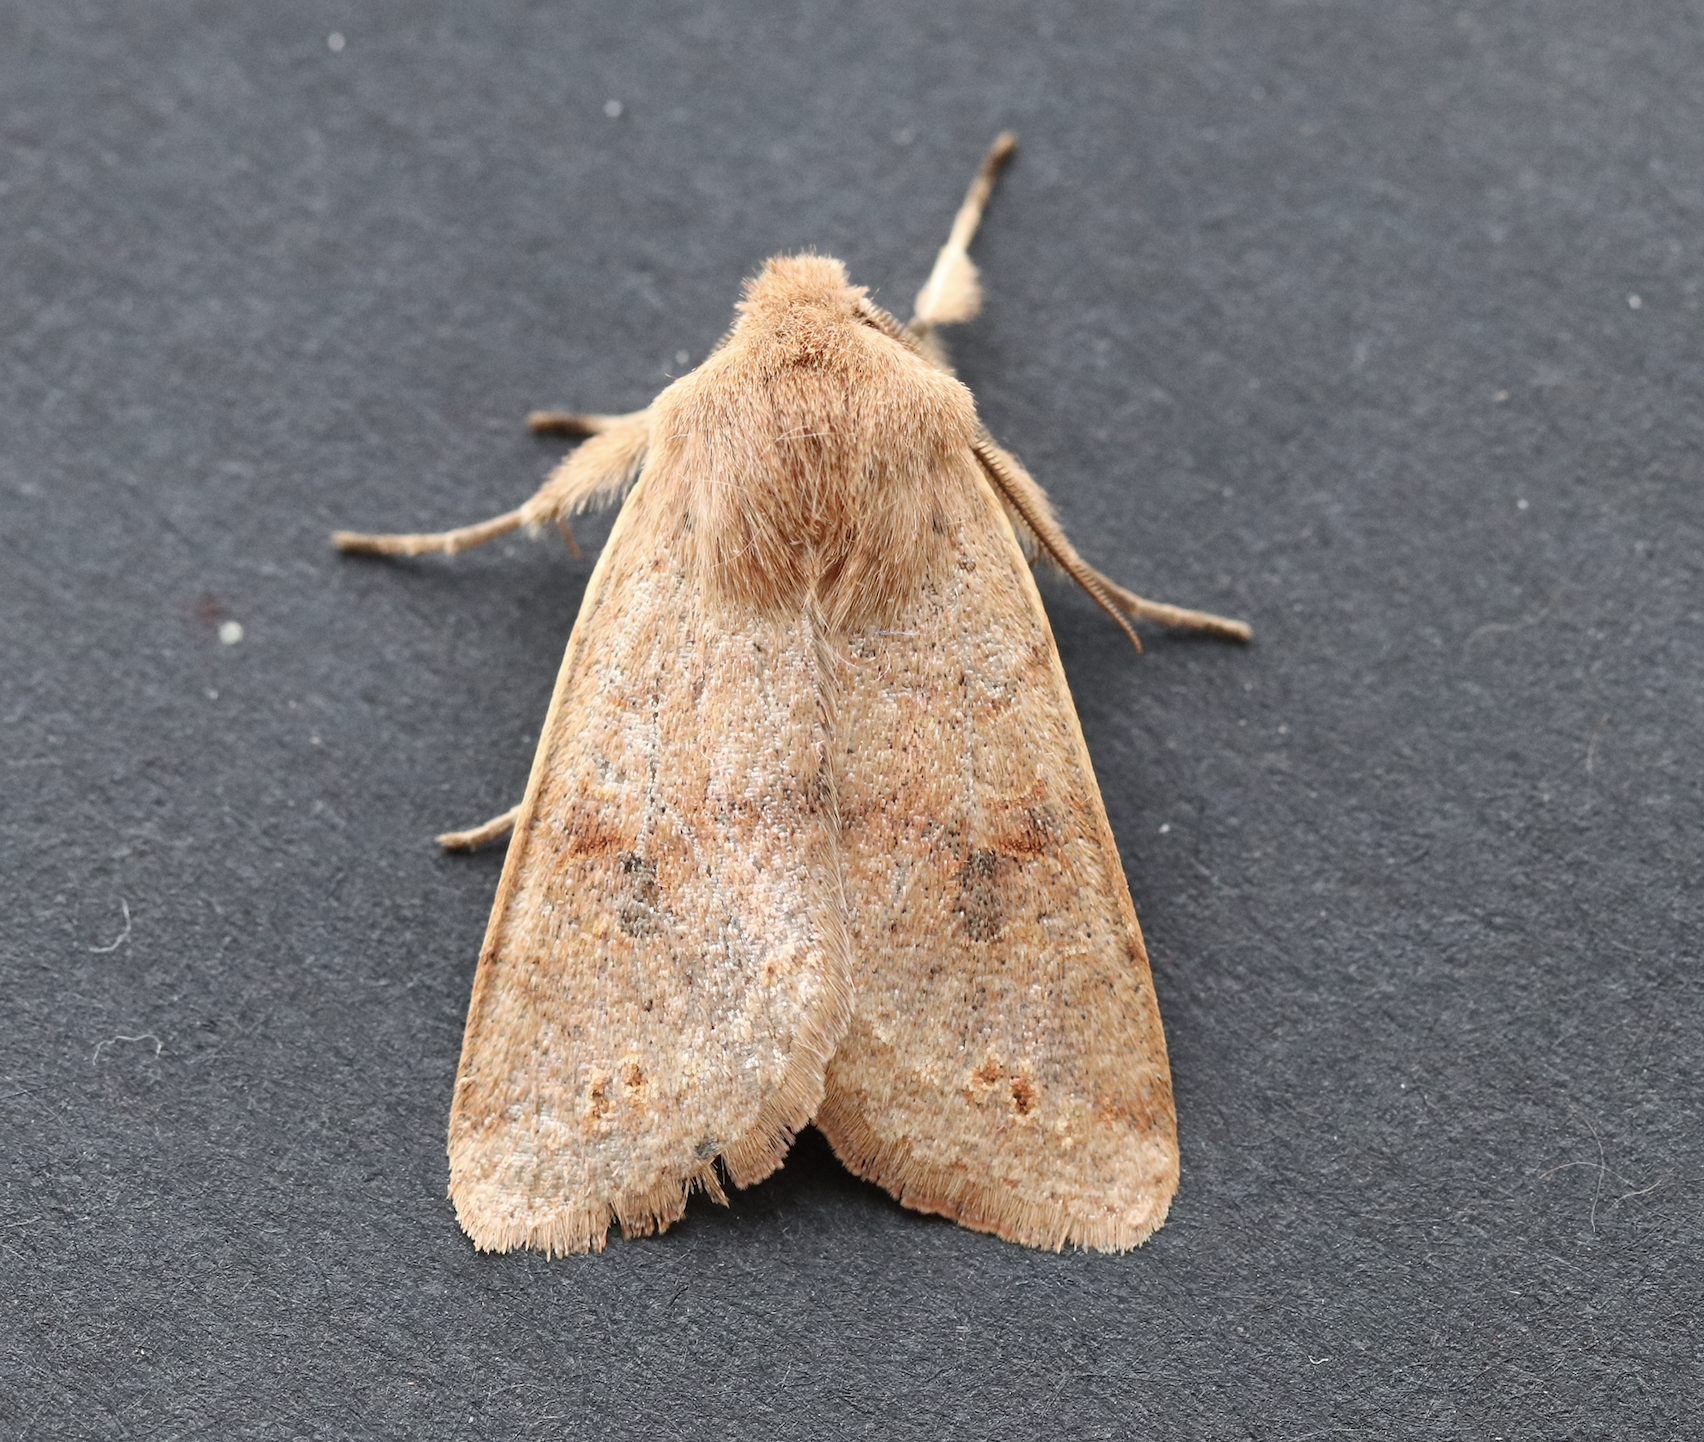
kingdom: Animalia
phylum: Arthropoda
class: Insecta
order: Lepidoptera
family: Noctuidae
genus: Anorthoa
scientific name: Anorthoa munda
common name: Twin-spotted quaker
